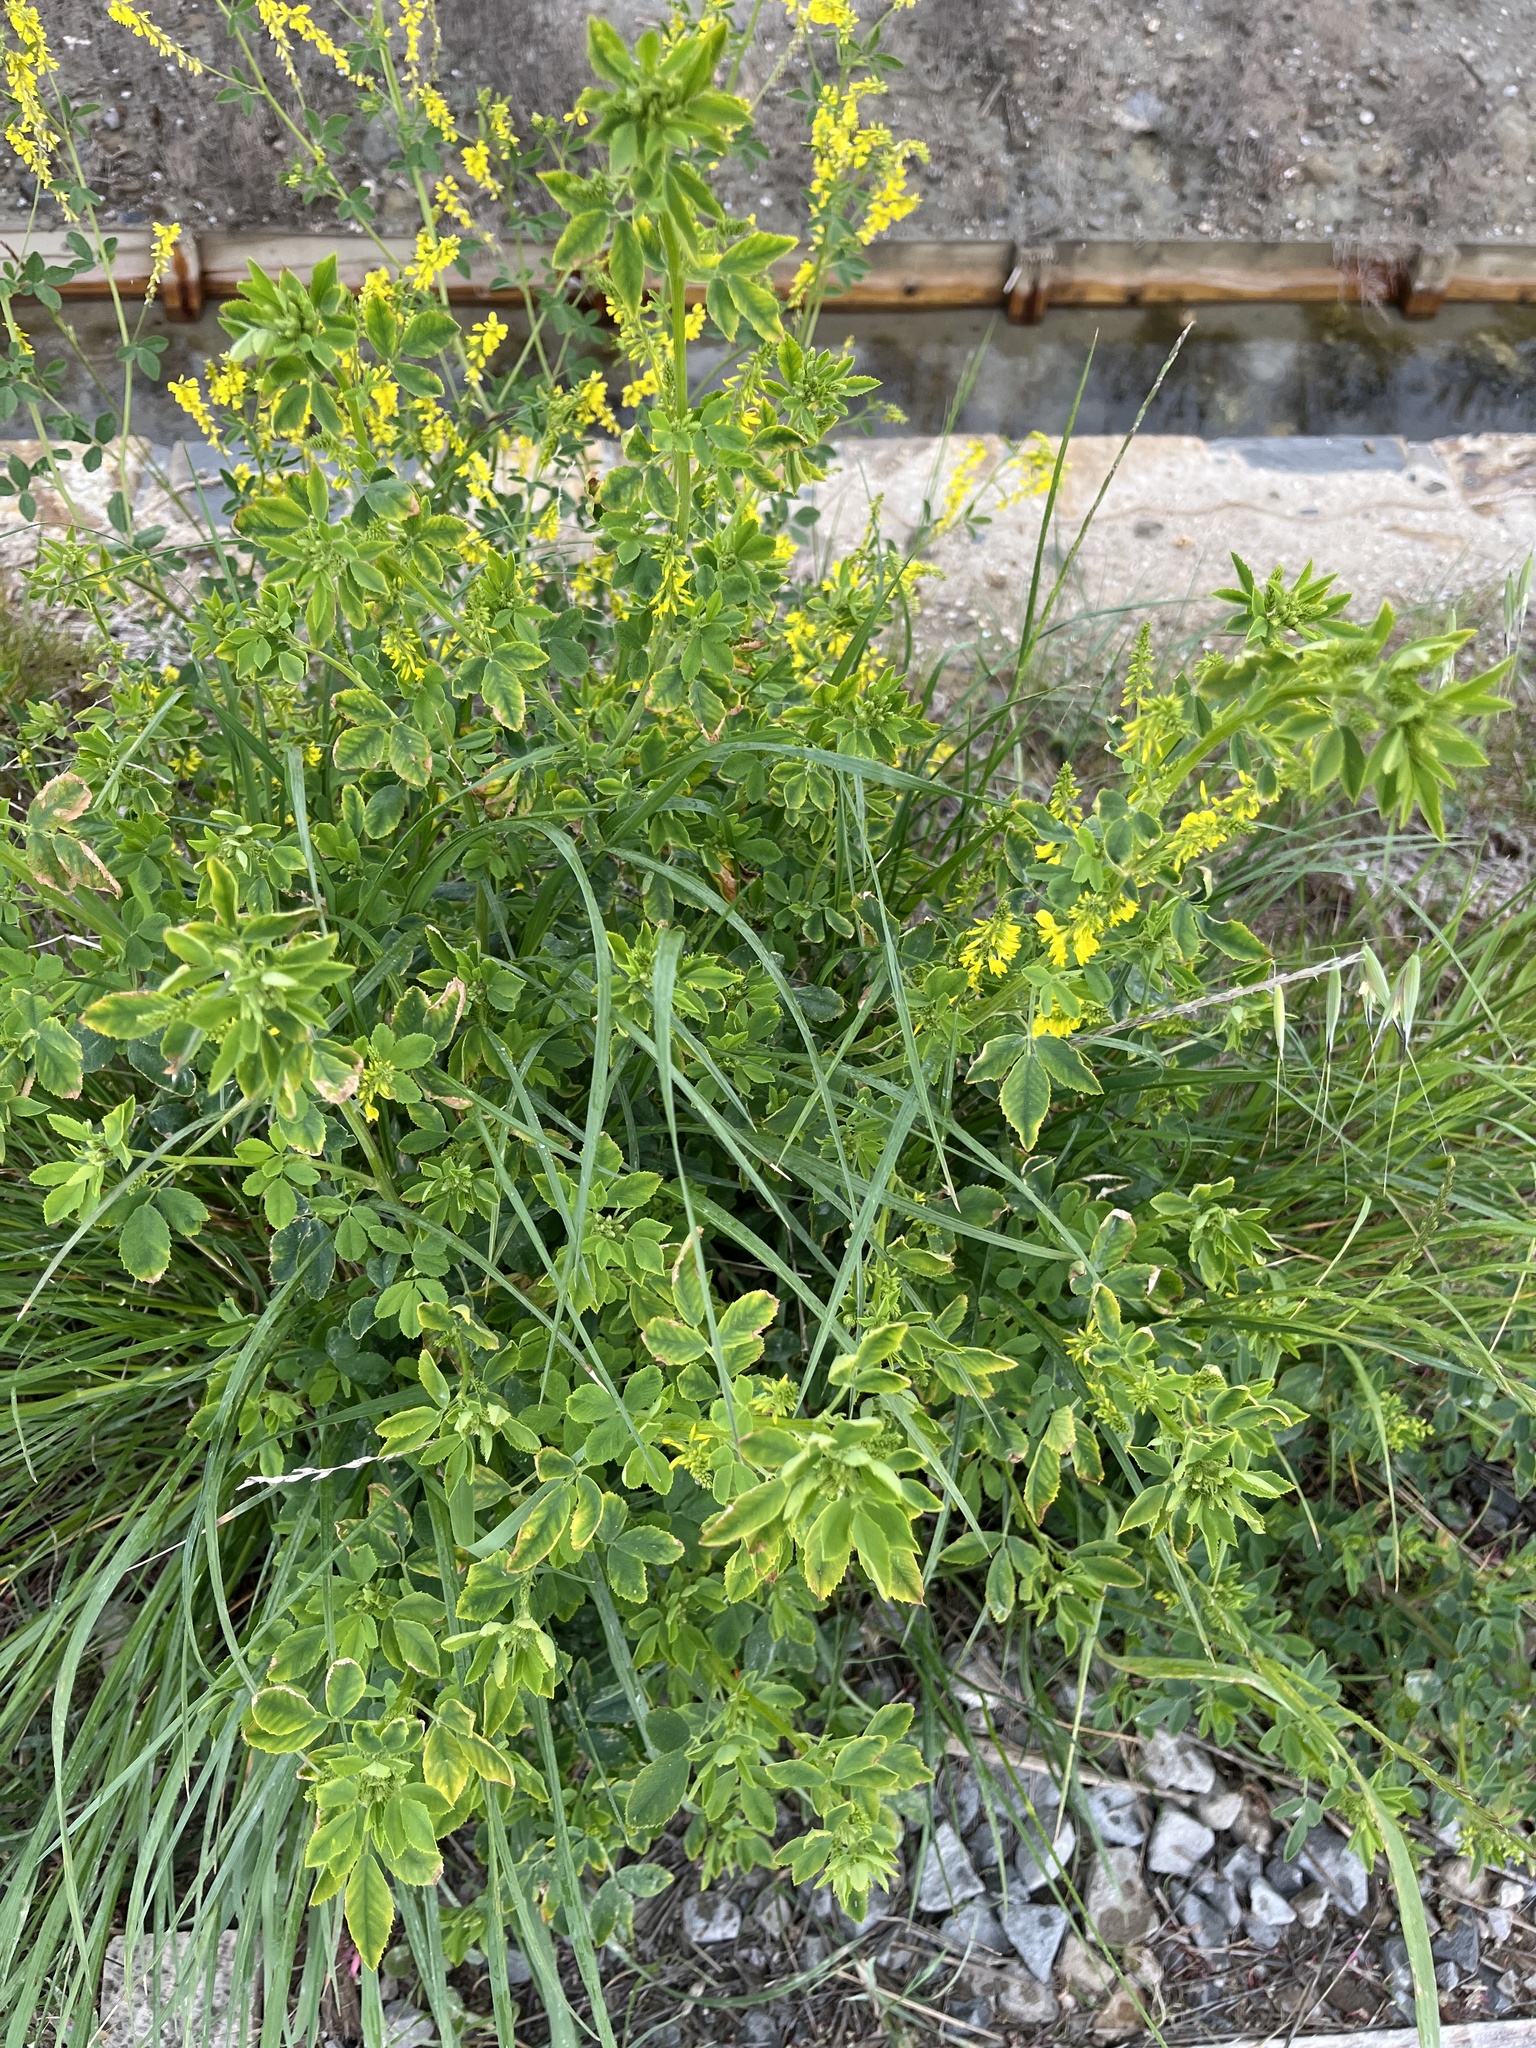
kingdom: Plantae
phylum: Tracheophyta
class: Magnoliopsida
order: Fabales
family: Fabaceae
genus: Melilotus
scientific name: Melilotus officinalis
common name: Sweetclover
